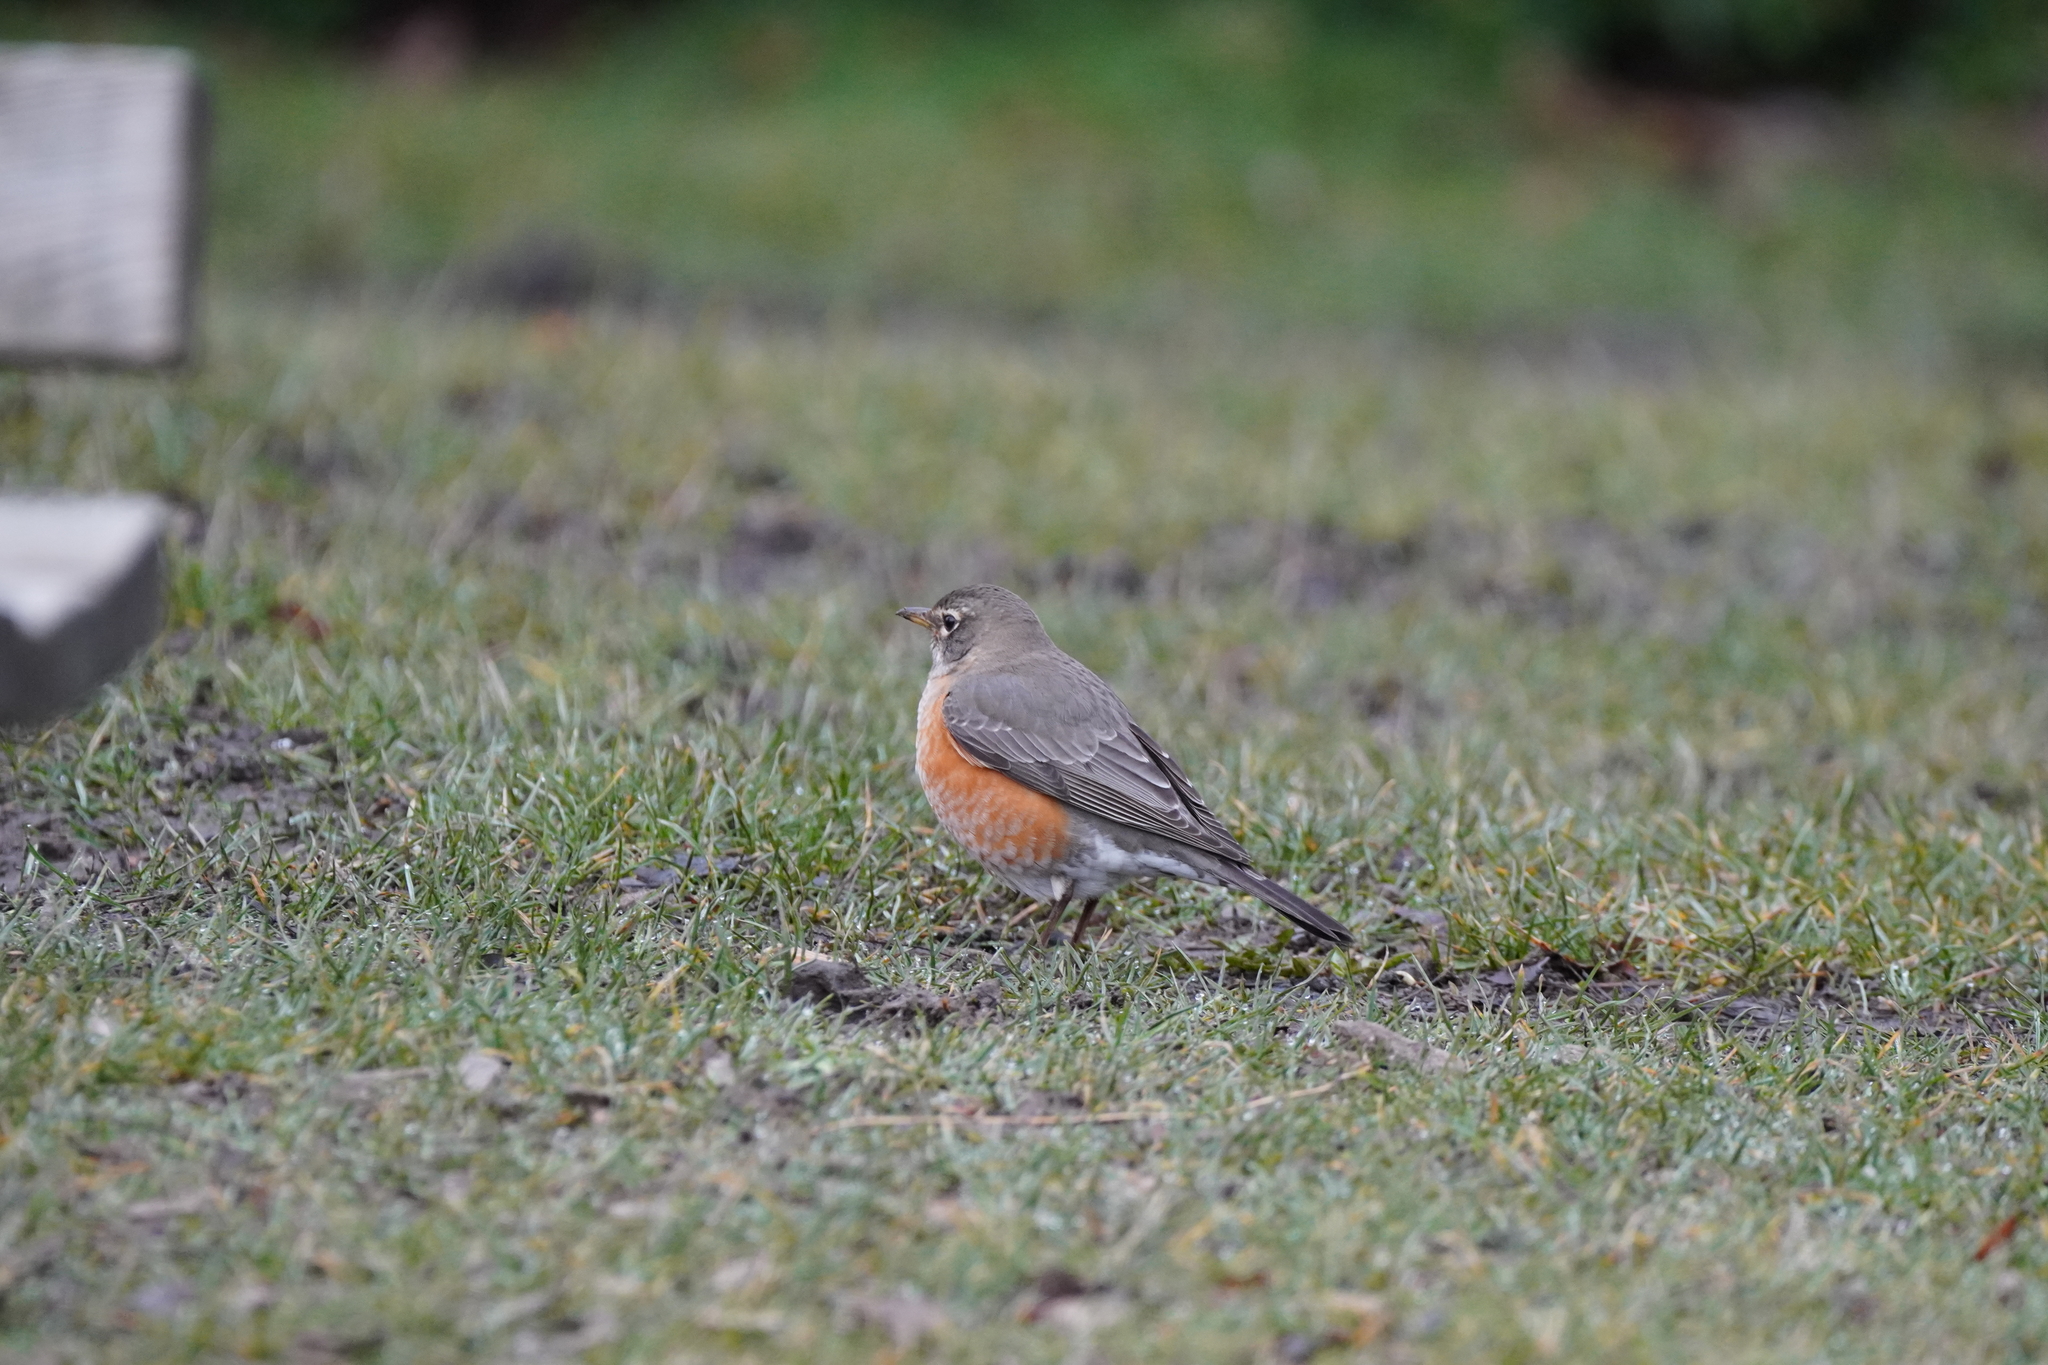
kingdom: Animalia
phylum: Chordata
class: Aves
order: Passeriformes
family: Turdidae
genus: Turdus
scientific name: Turdus migratorius
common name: American robin
